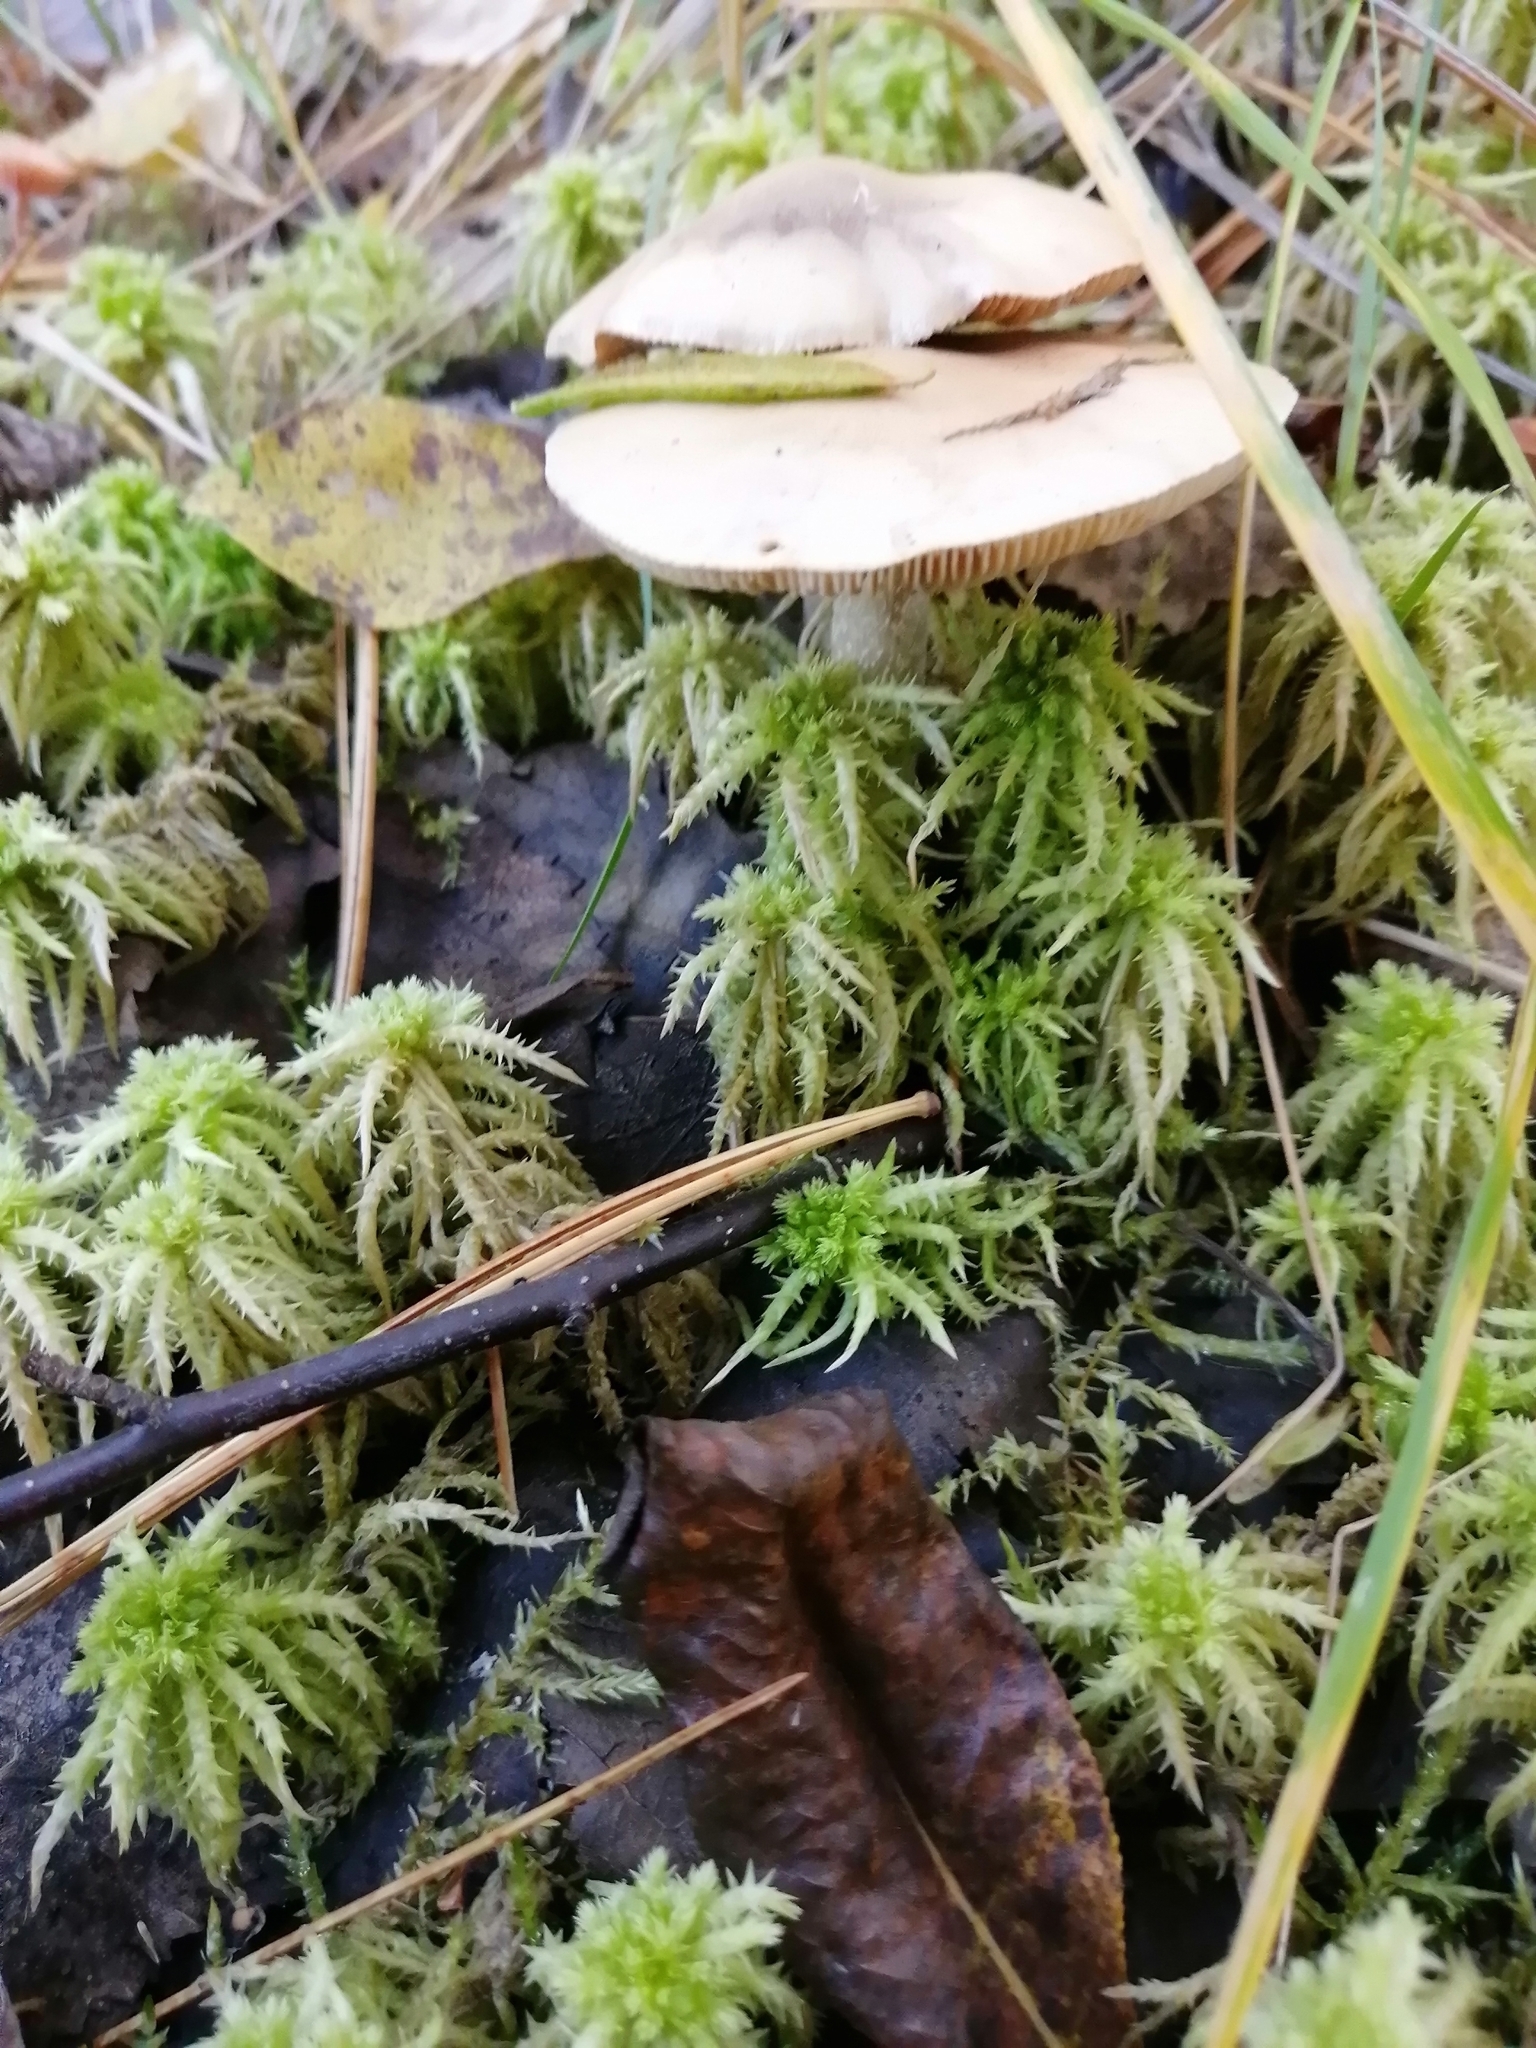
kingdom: Fungi
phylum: Basidiomycota
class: Agaricomycetes
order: Agaricales
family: Hymenogastraceae
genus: Hebeloma
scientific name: Hebeloma incarnatulum
